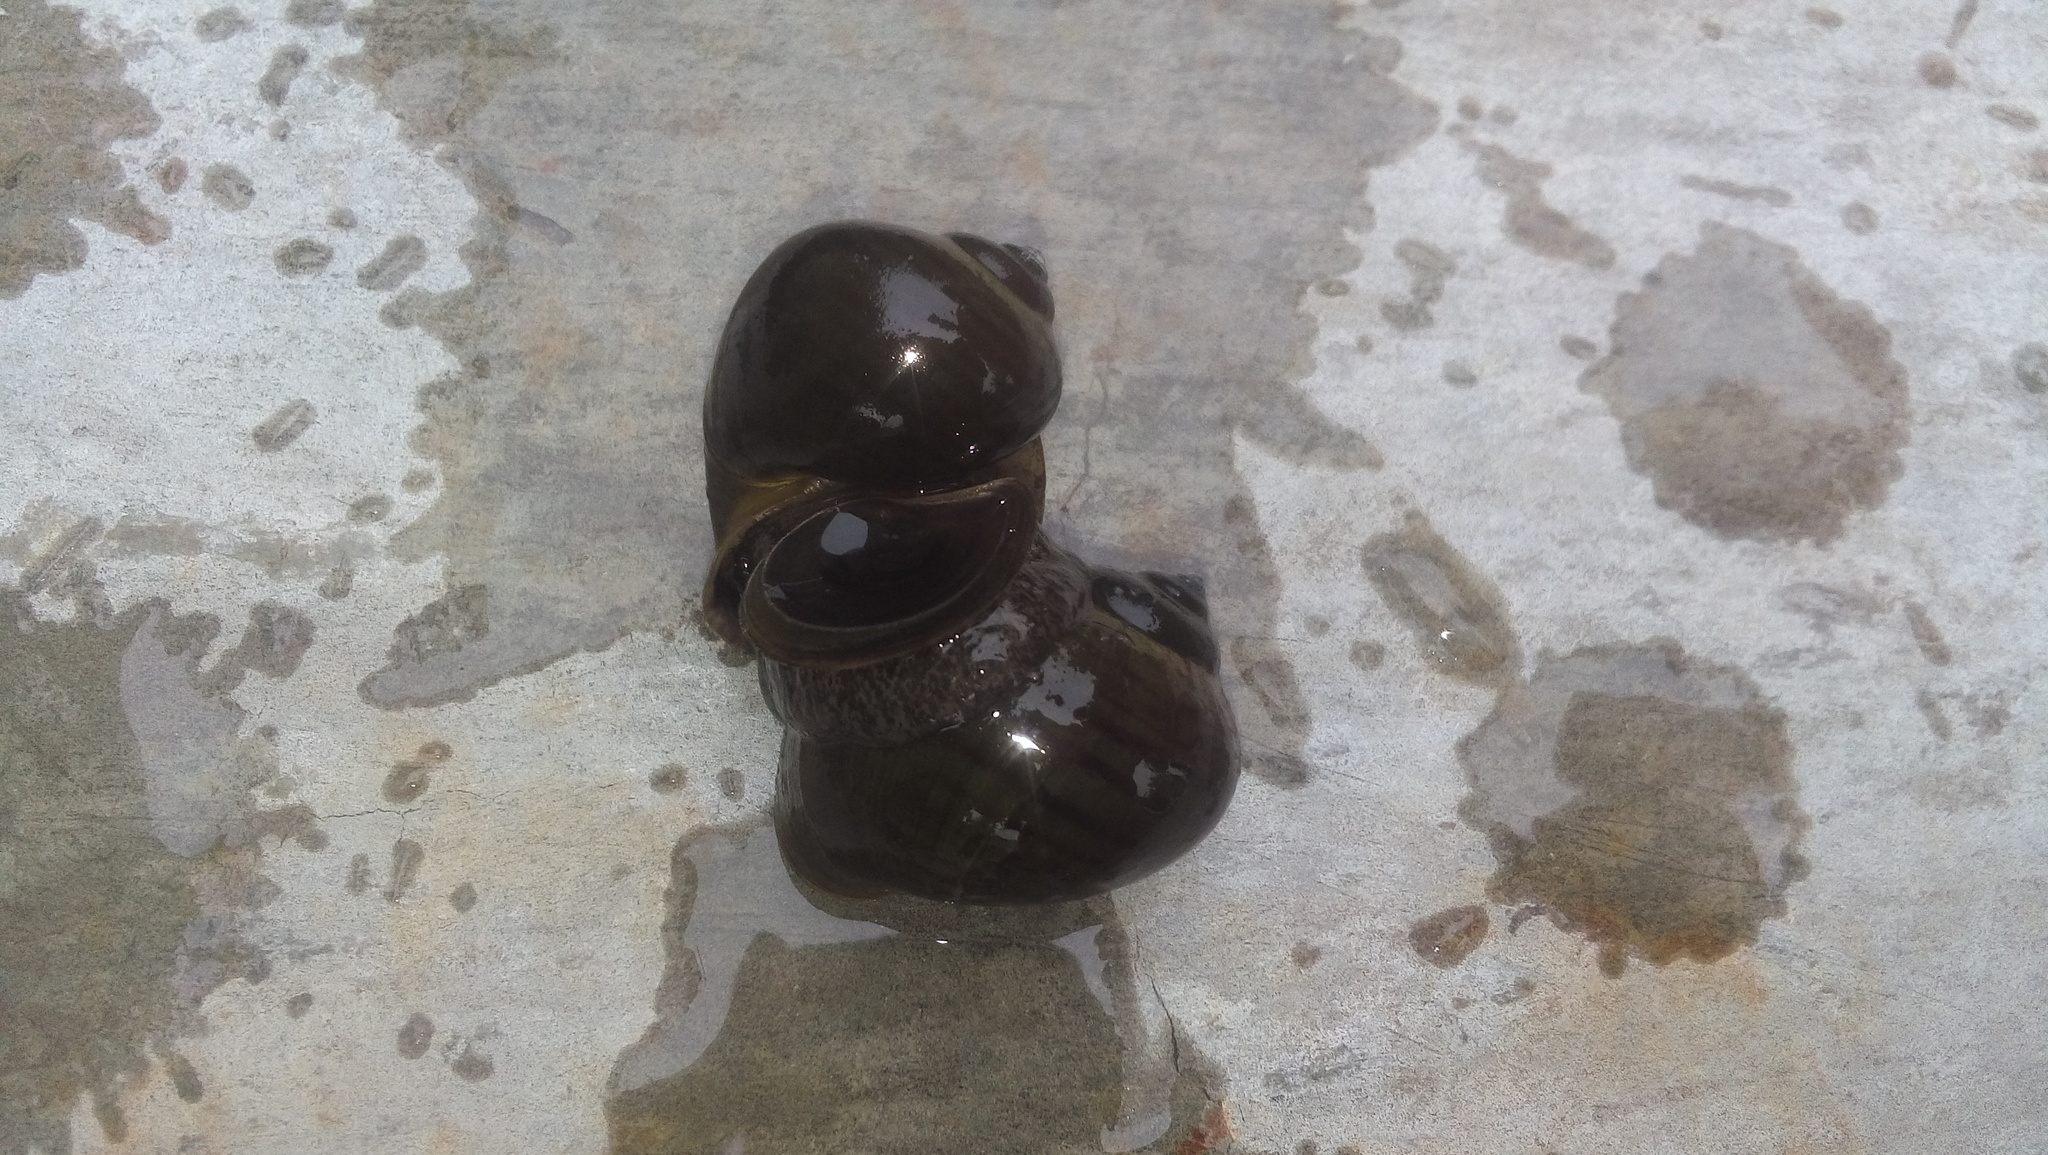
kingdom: Animalia
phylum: Mollusca
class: Gastropoda
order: Architaenioglossa
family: Ampullariidae
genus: Pomacea
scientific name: Pomacea flagellata
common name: Maya apple snail
